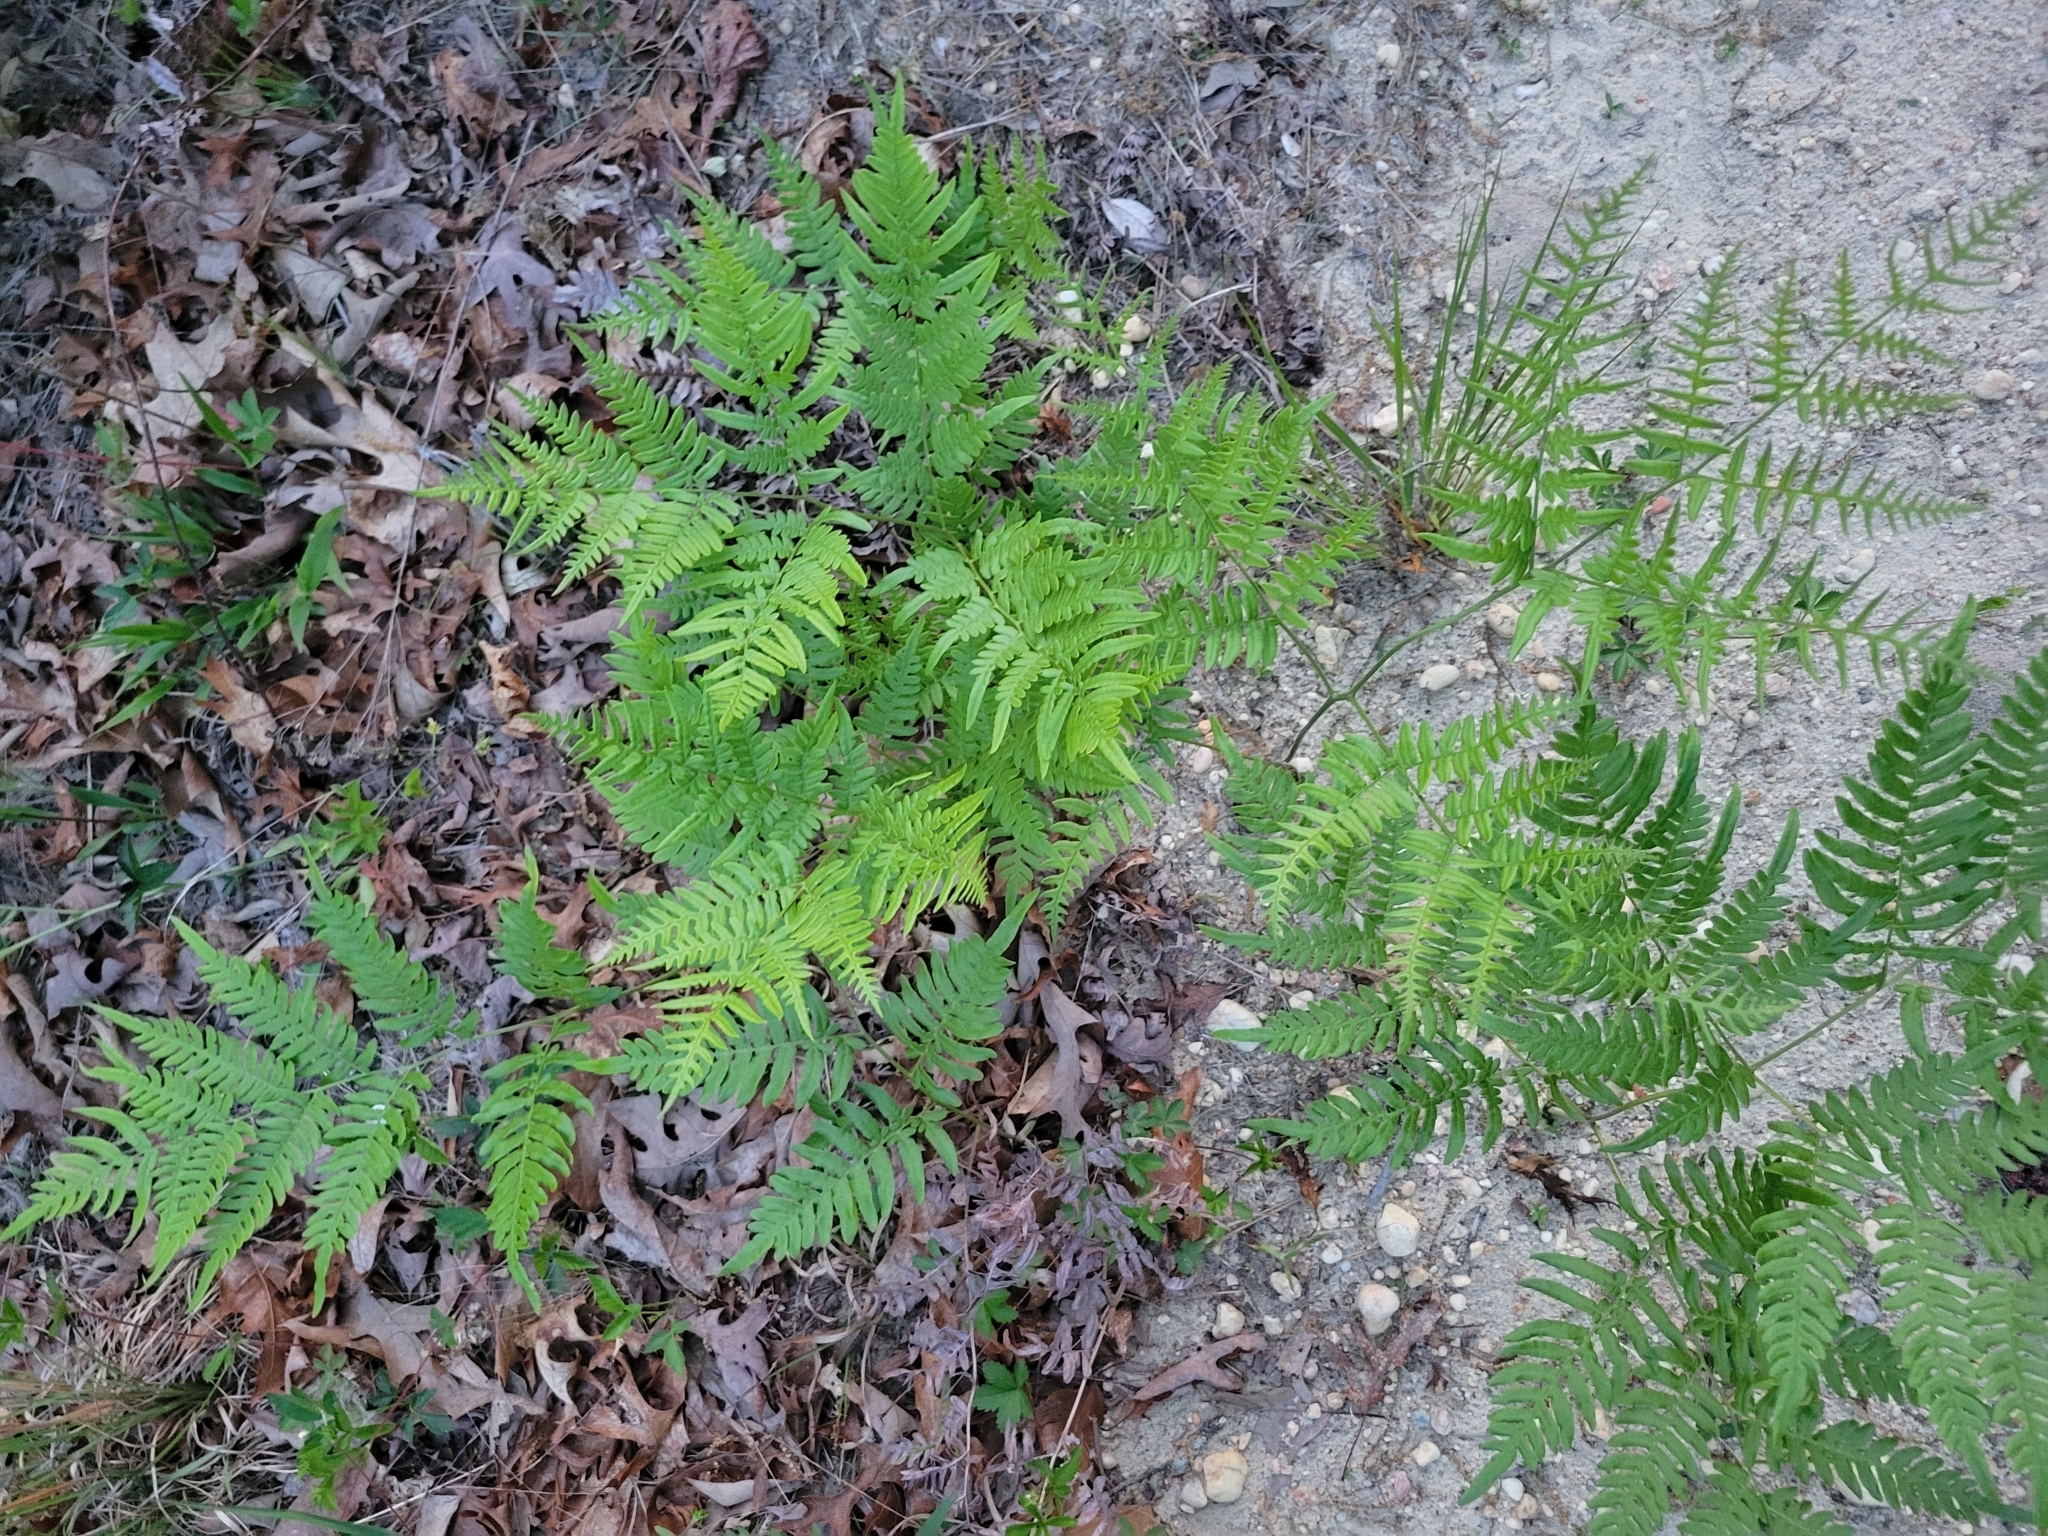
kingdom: Plantae
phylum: Tracheophyta
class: Polypodiopsida
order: Polypodiales
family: Dennstaedtiaceae
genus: Pteridium
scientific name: Pteridium aquilinum
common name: Bracken
